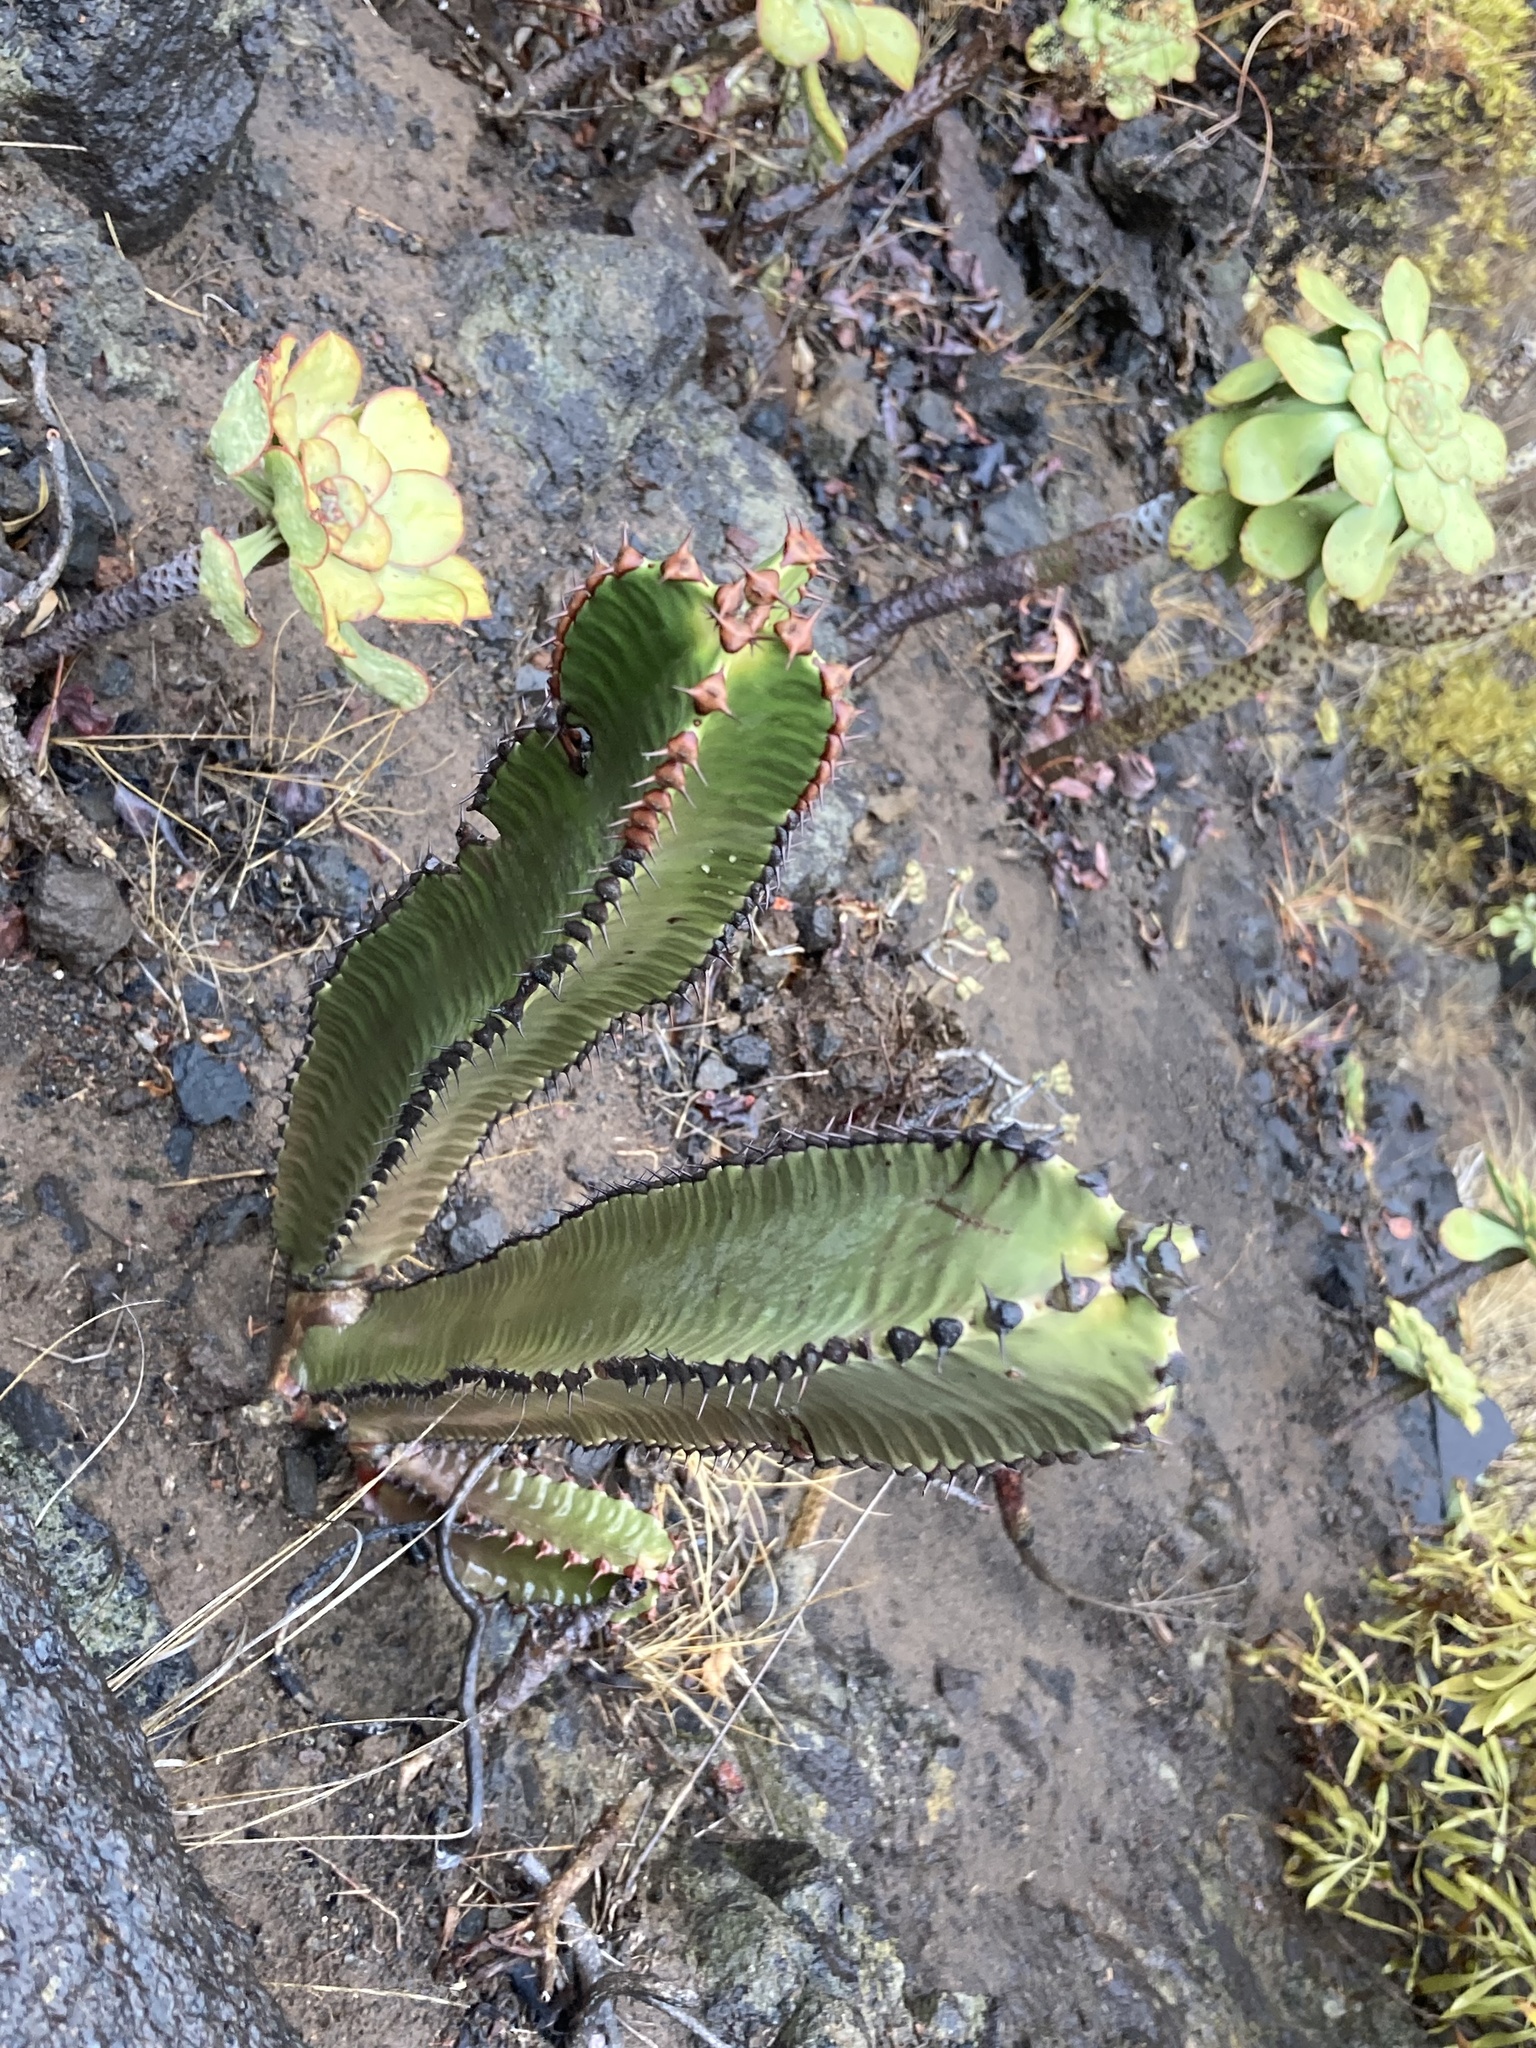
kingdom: Plantae
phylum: Tracheophyta
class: Magnoliopsida
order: Malpighiales
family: Euphorbiaceae
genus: Euphorbia
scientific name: Euphorbia canariensis
